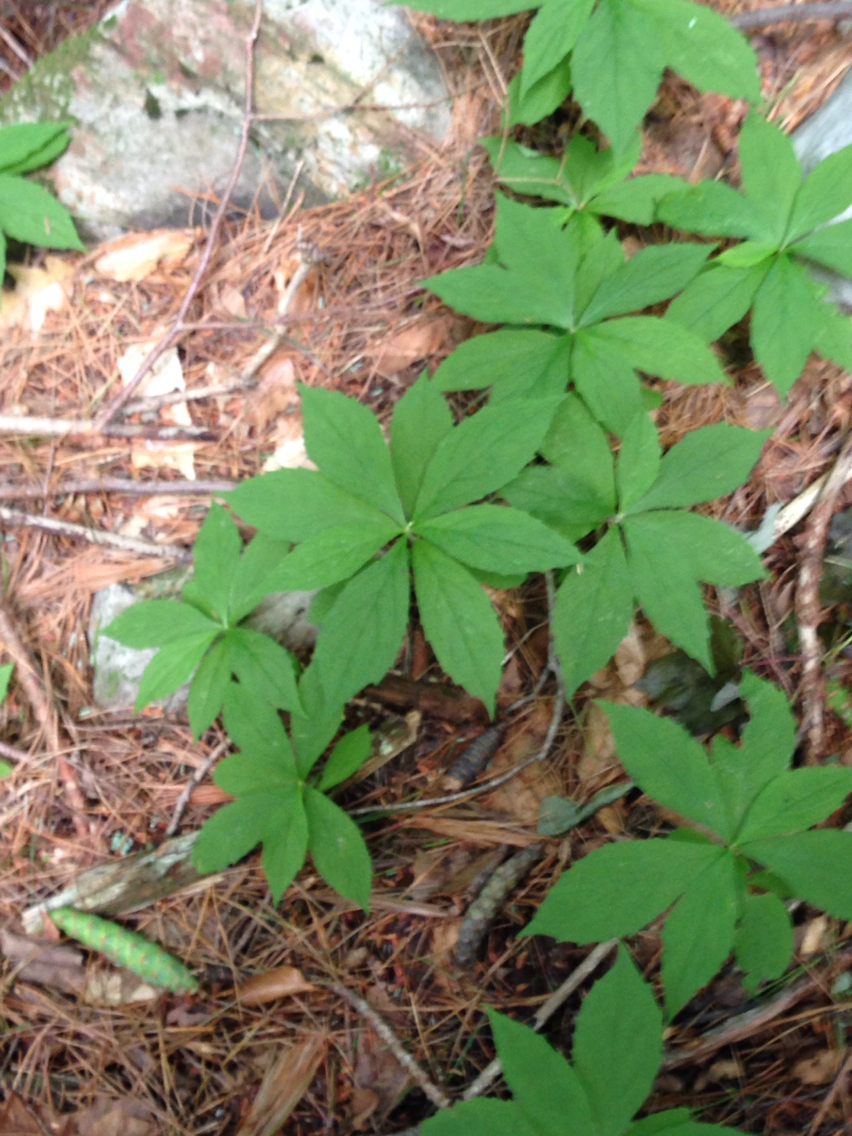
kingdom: Plantae
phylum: Tracheophyta
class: Magnoliopsida
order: Asterales
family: Asteraceae
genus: Oclemena
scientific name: Oclemena acuminata
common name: Mountain aster
